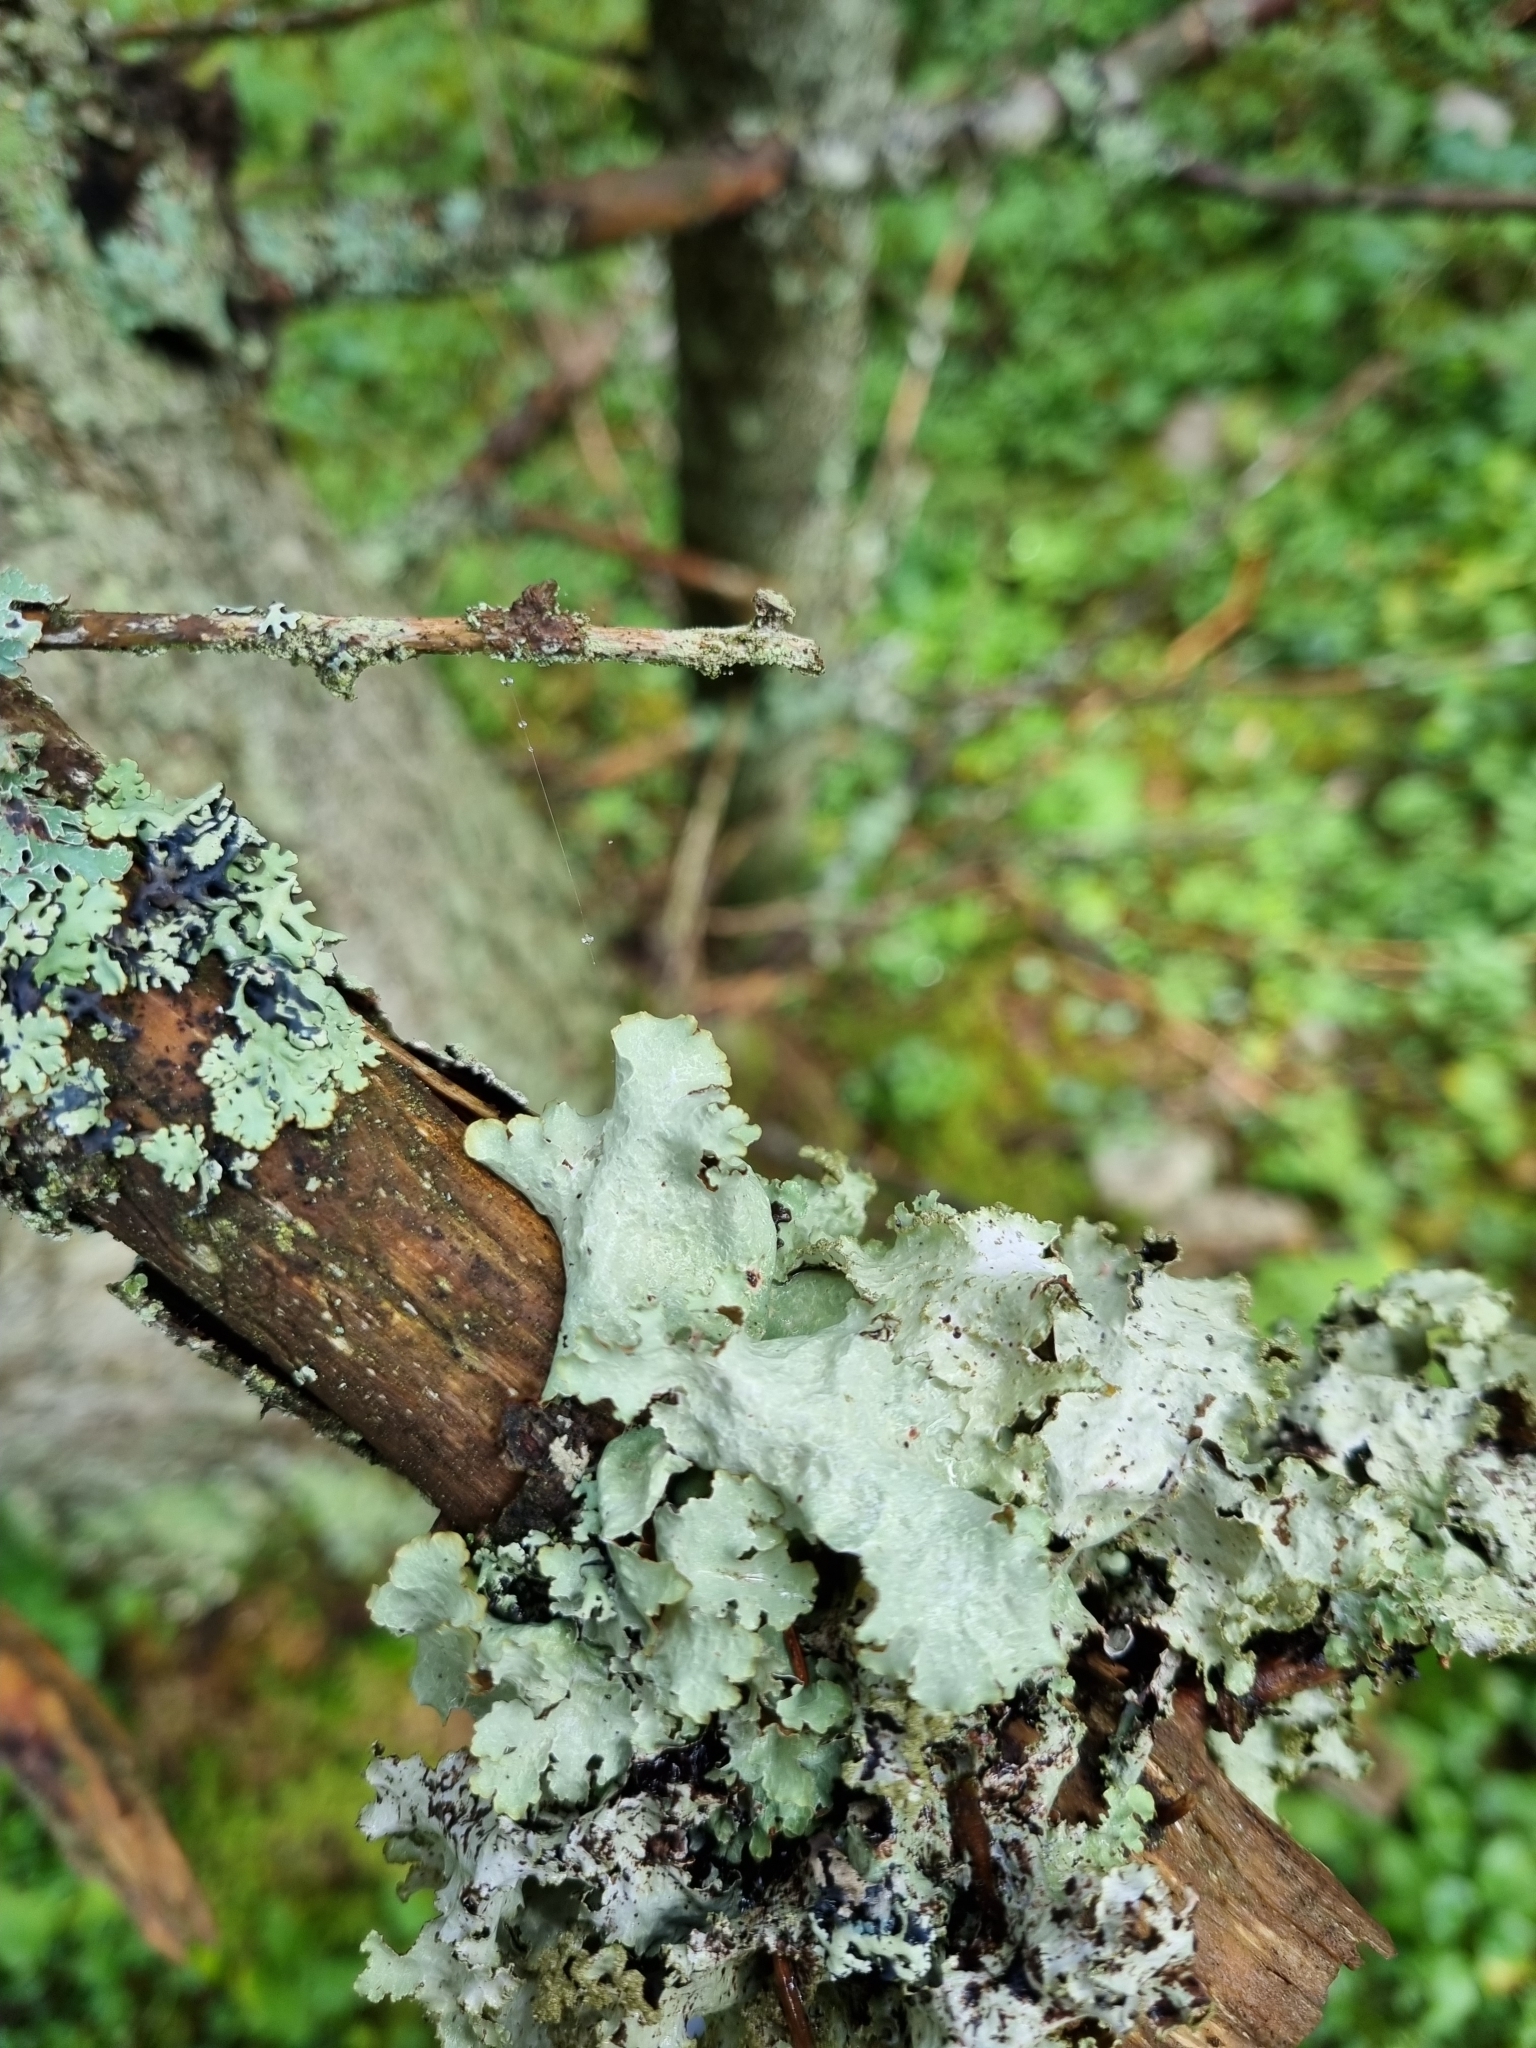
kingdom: Fungi
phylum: Ascomycota
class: Lecanoromycetes
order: Lecanorales
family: Parmeliaceae
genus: Platismatia
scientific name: Platismatia glauca
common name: Varied rag lichen
